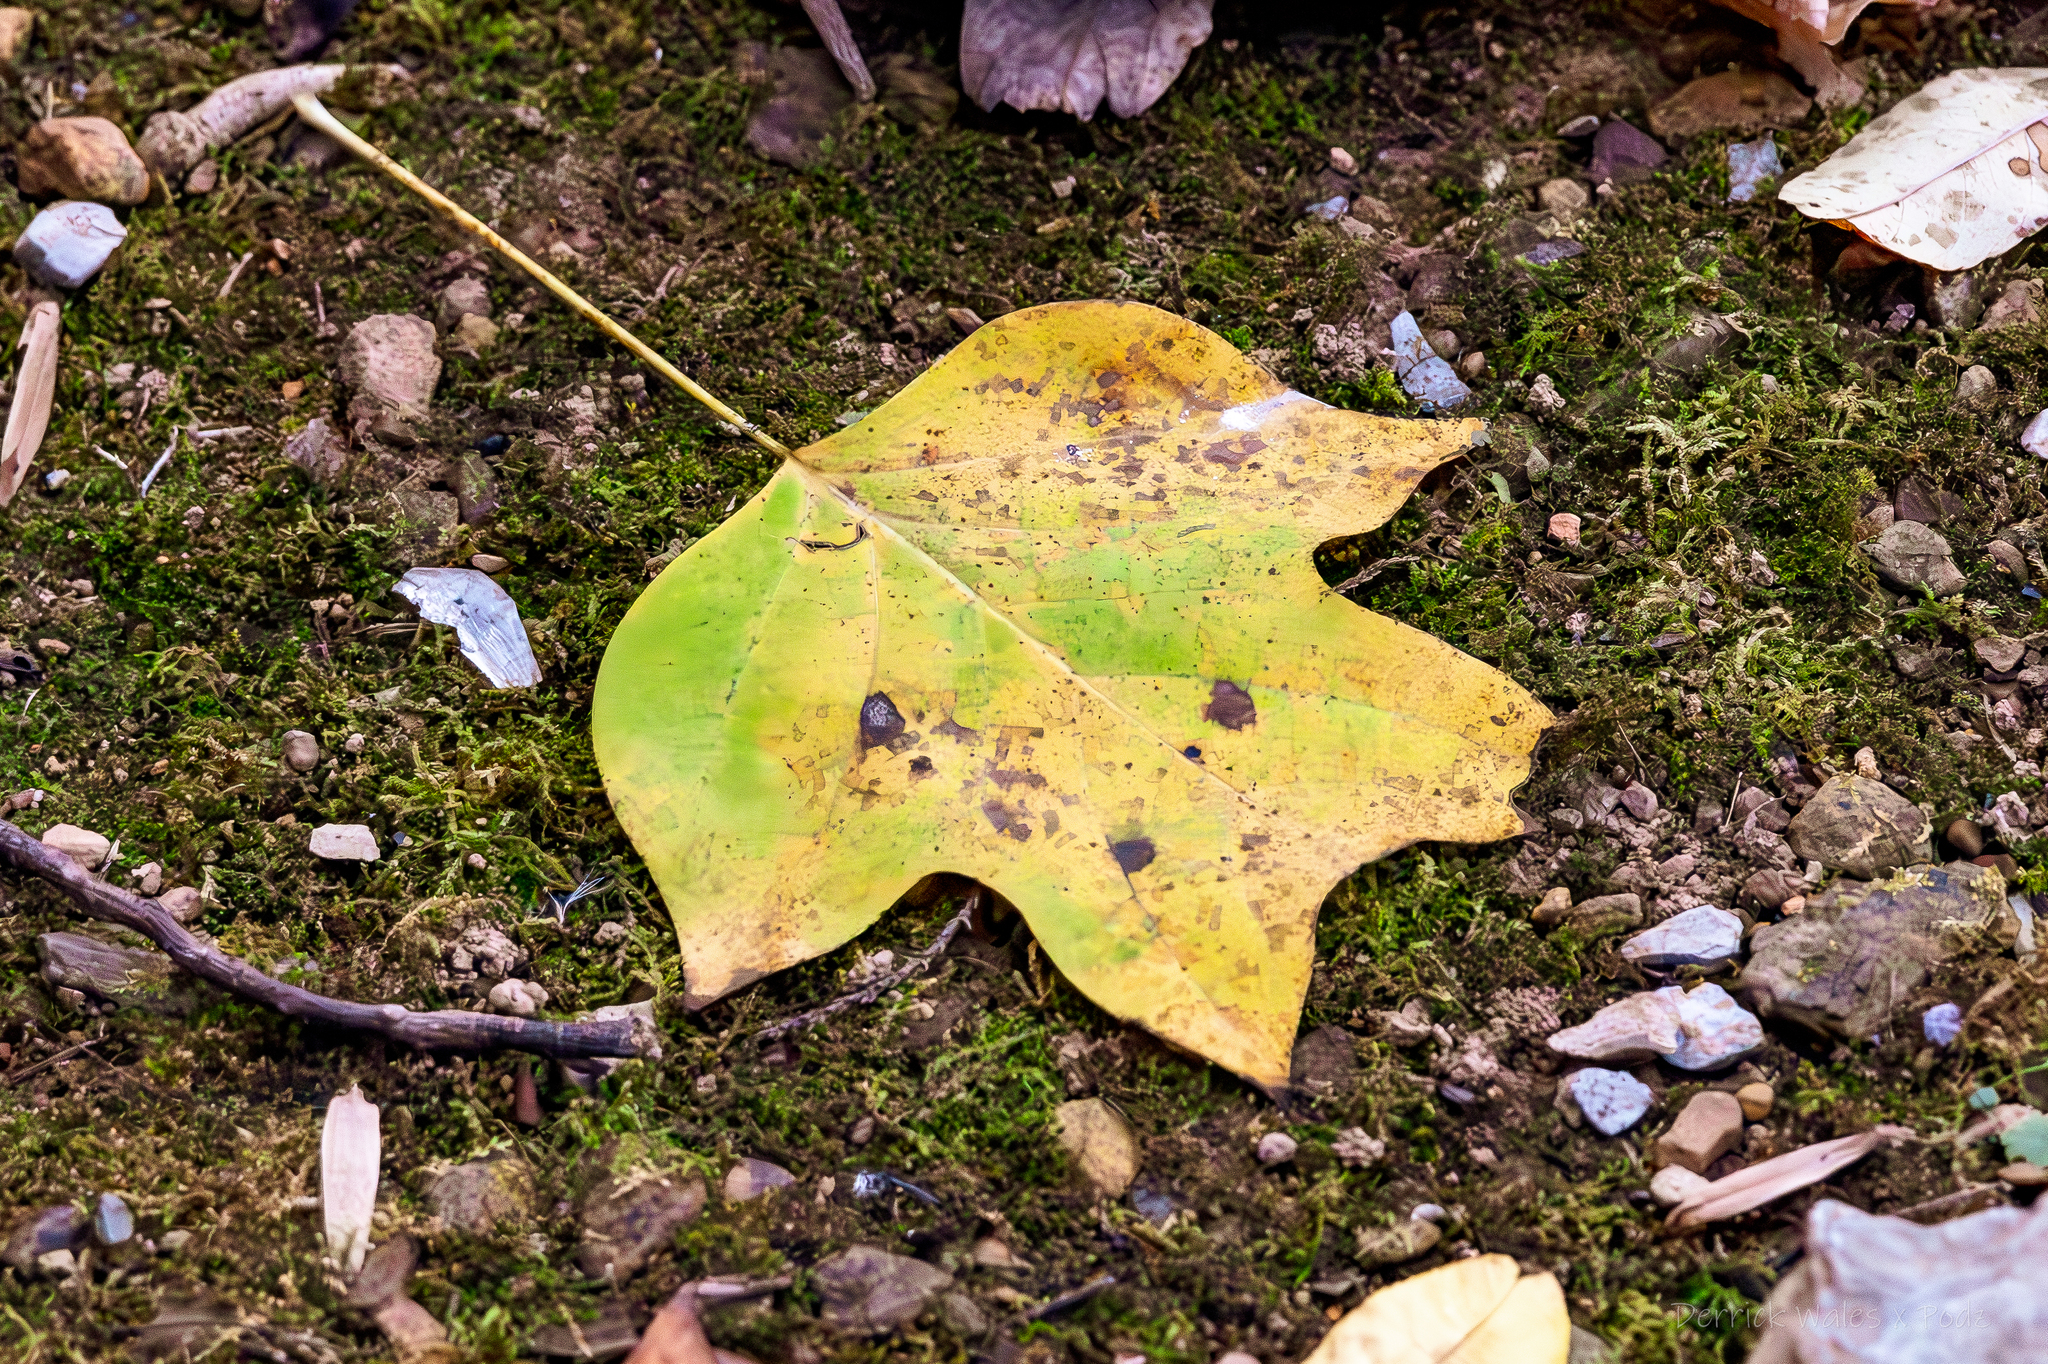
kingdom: Plantae
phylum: Tracheophyta
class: Magnoliopsida
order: Magnoliales
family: Magnoliaceae
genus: Liriodendron
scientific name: Liriodendron tulipifera
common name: Tulip tree
